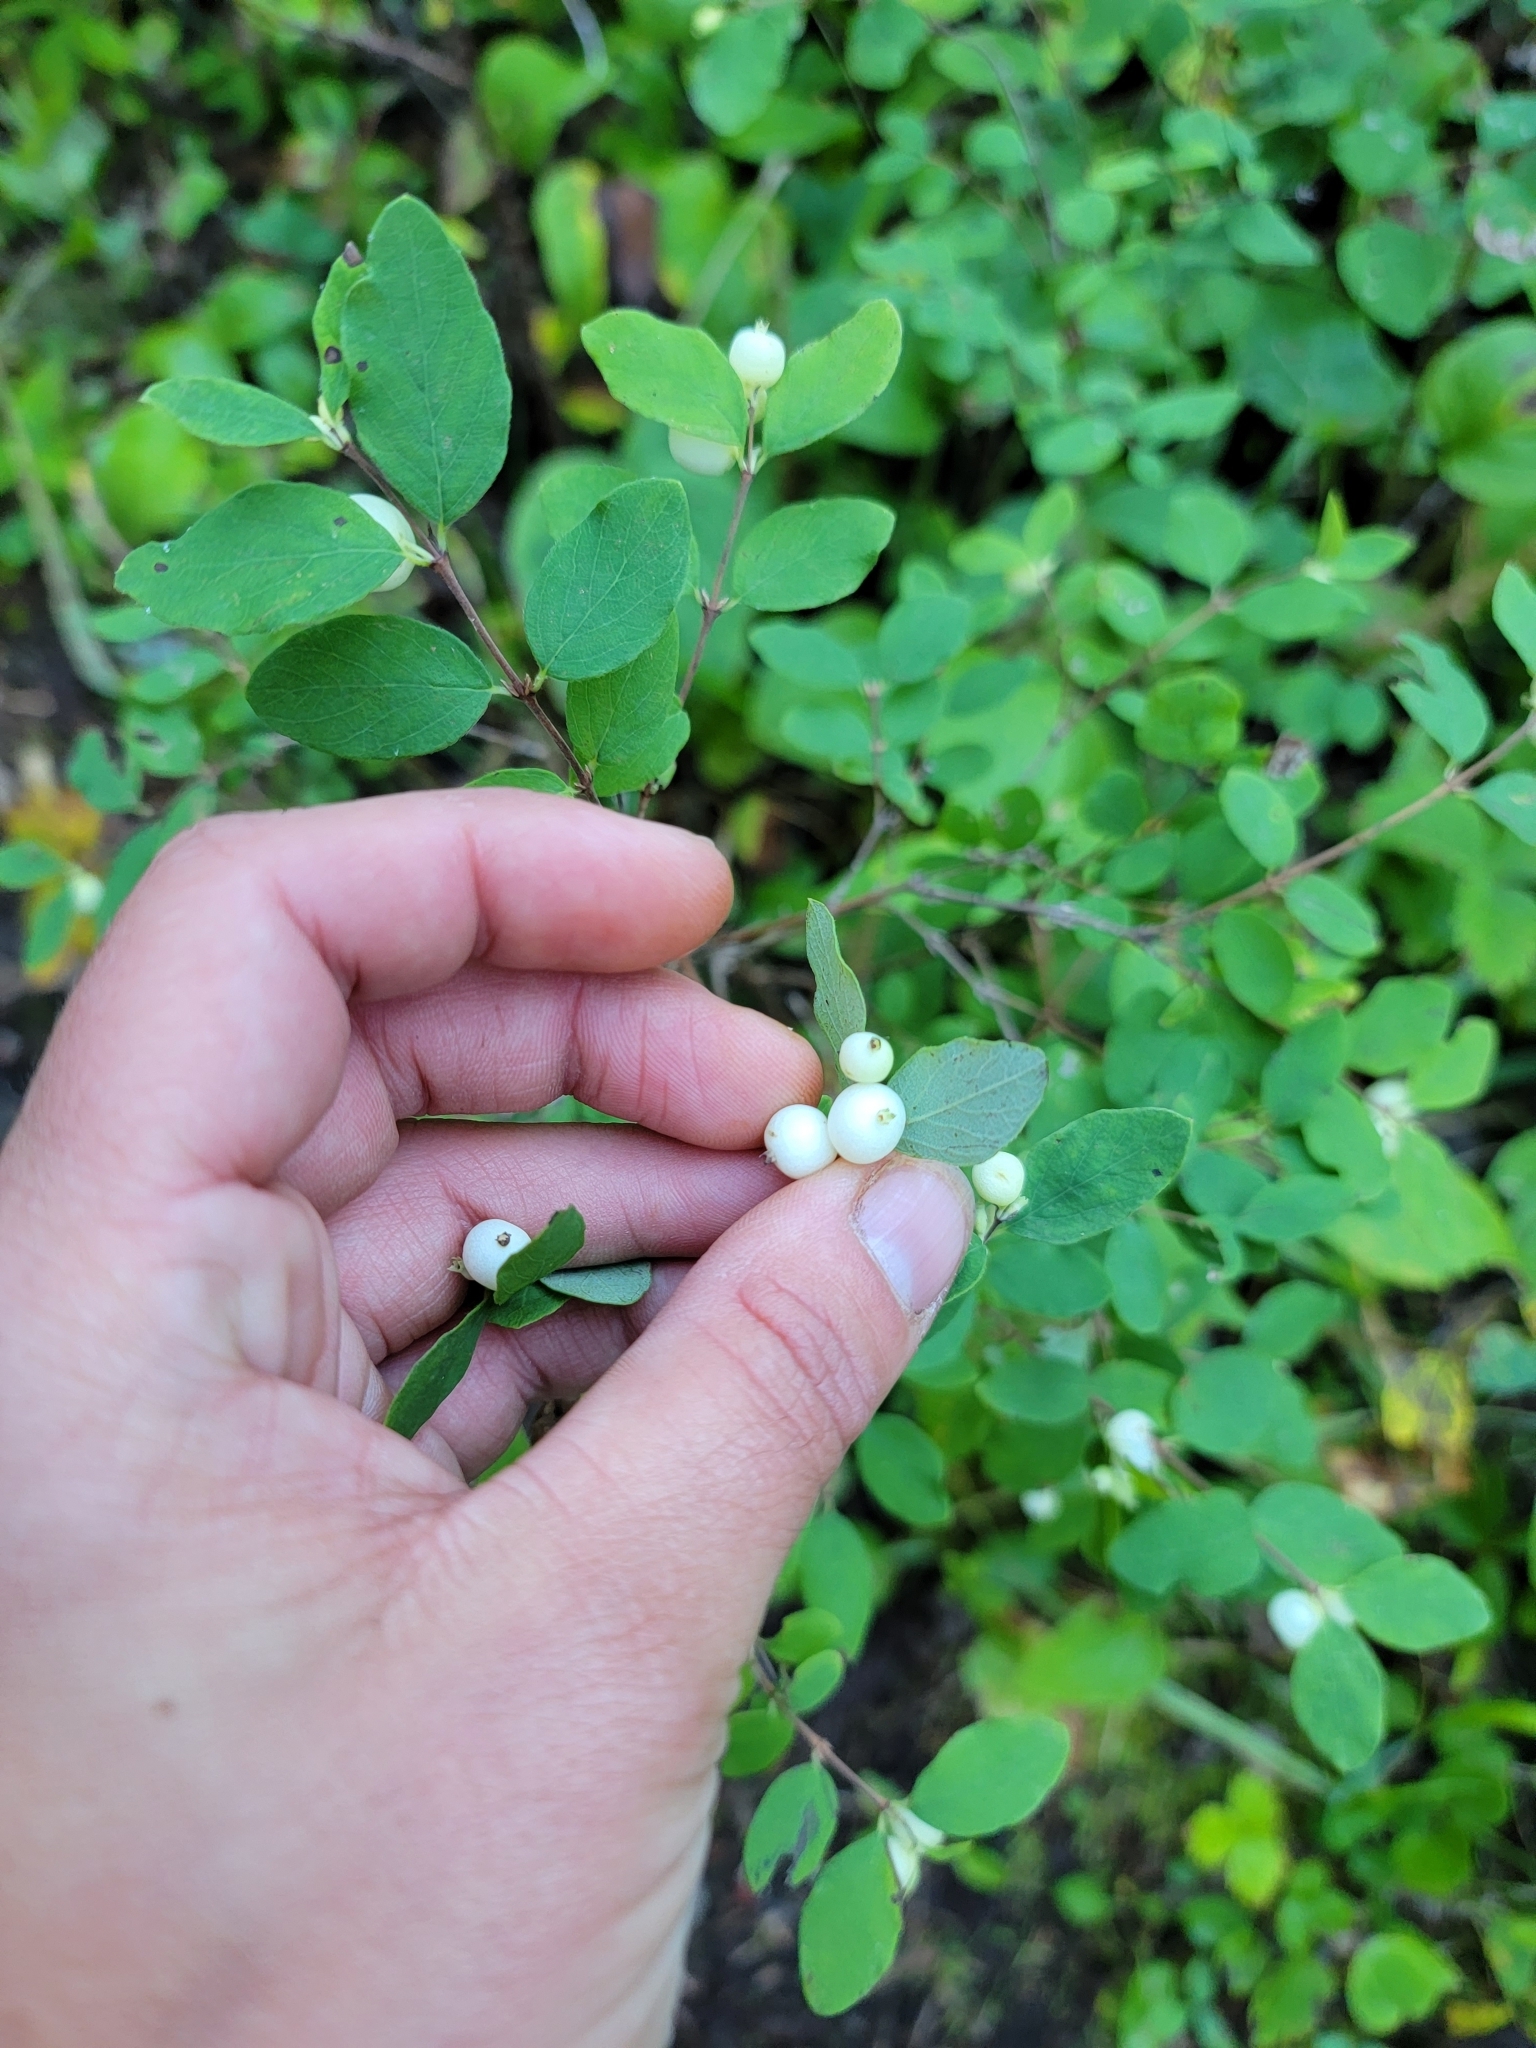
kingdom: Plantae
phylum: Tracheophyta
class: Magnoliopsida
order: Dipsacales
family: Caprifoliaceae
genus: Symphoricarpos
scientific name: Symphoricarpos albus
